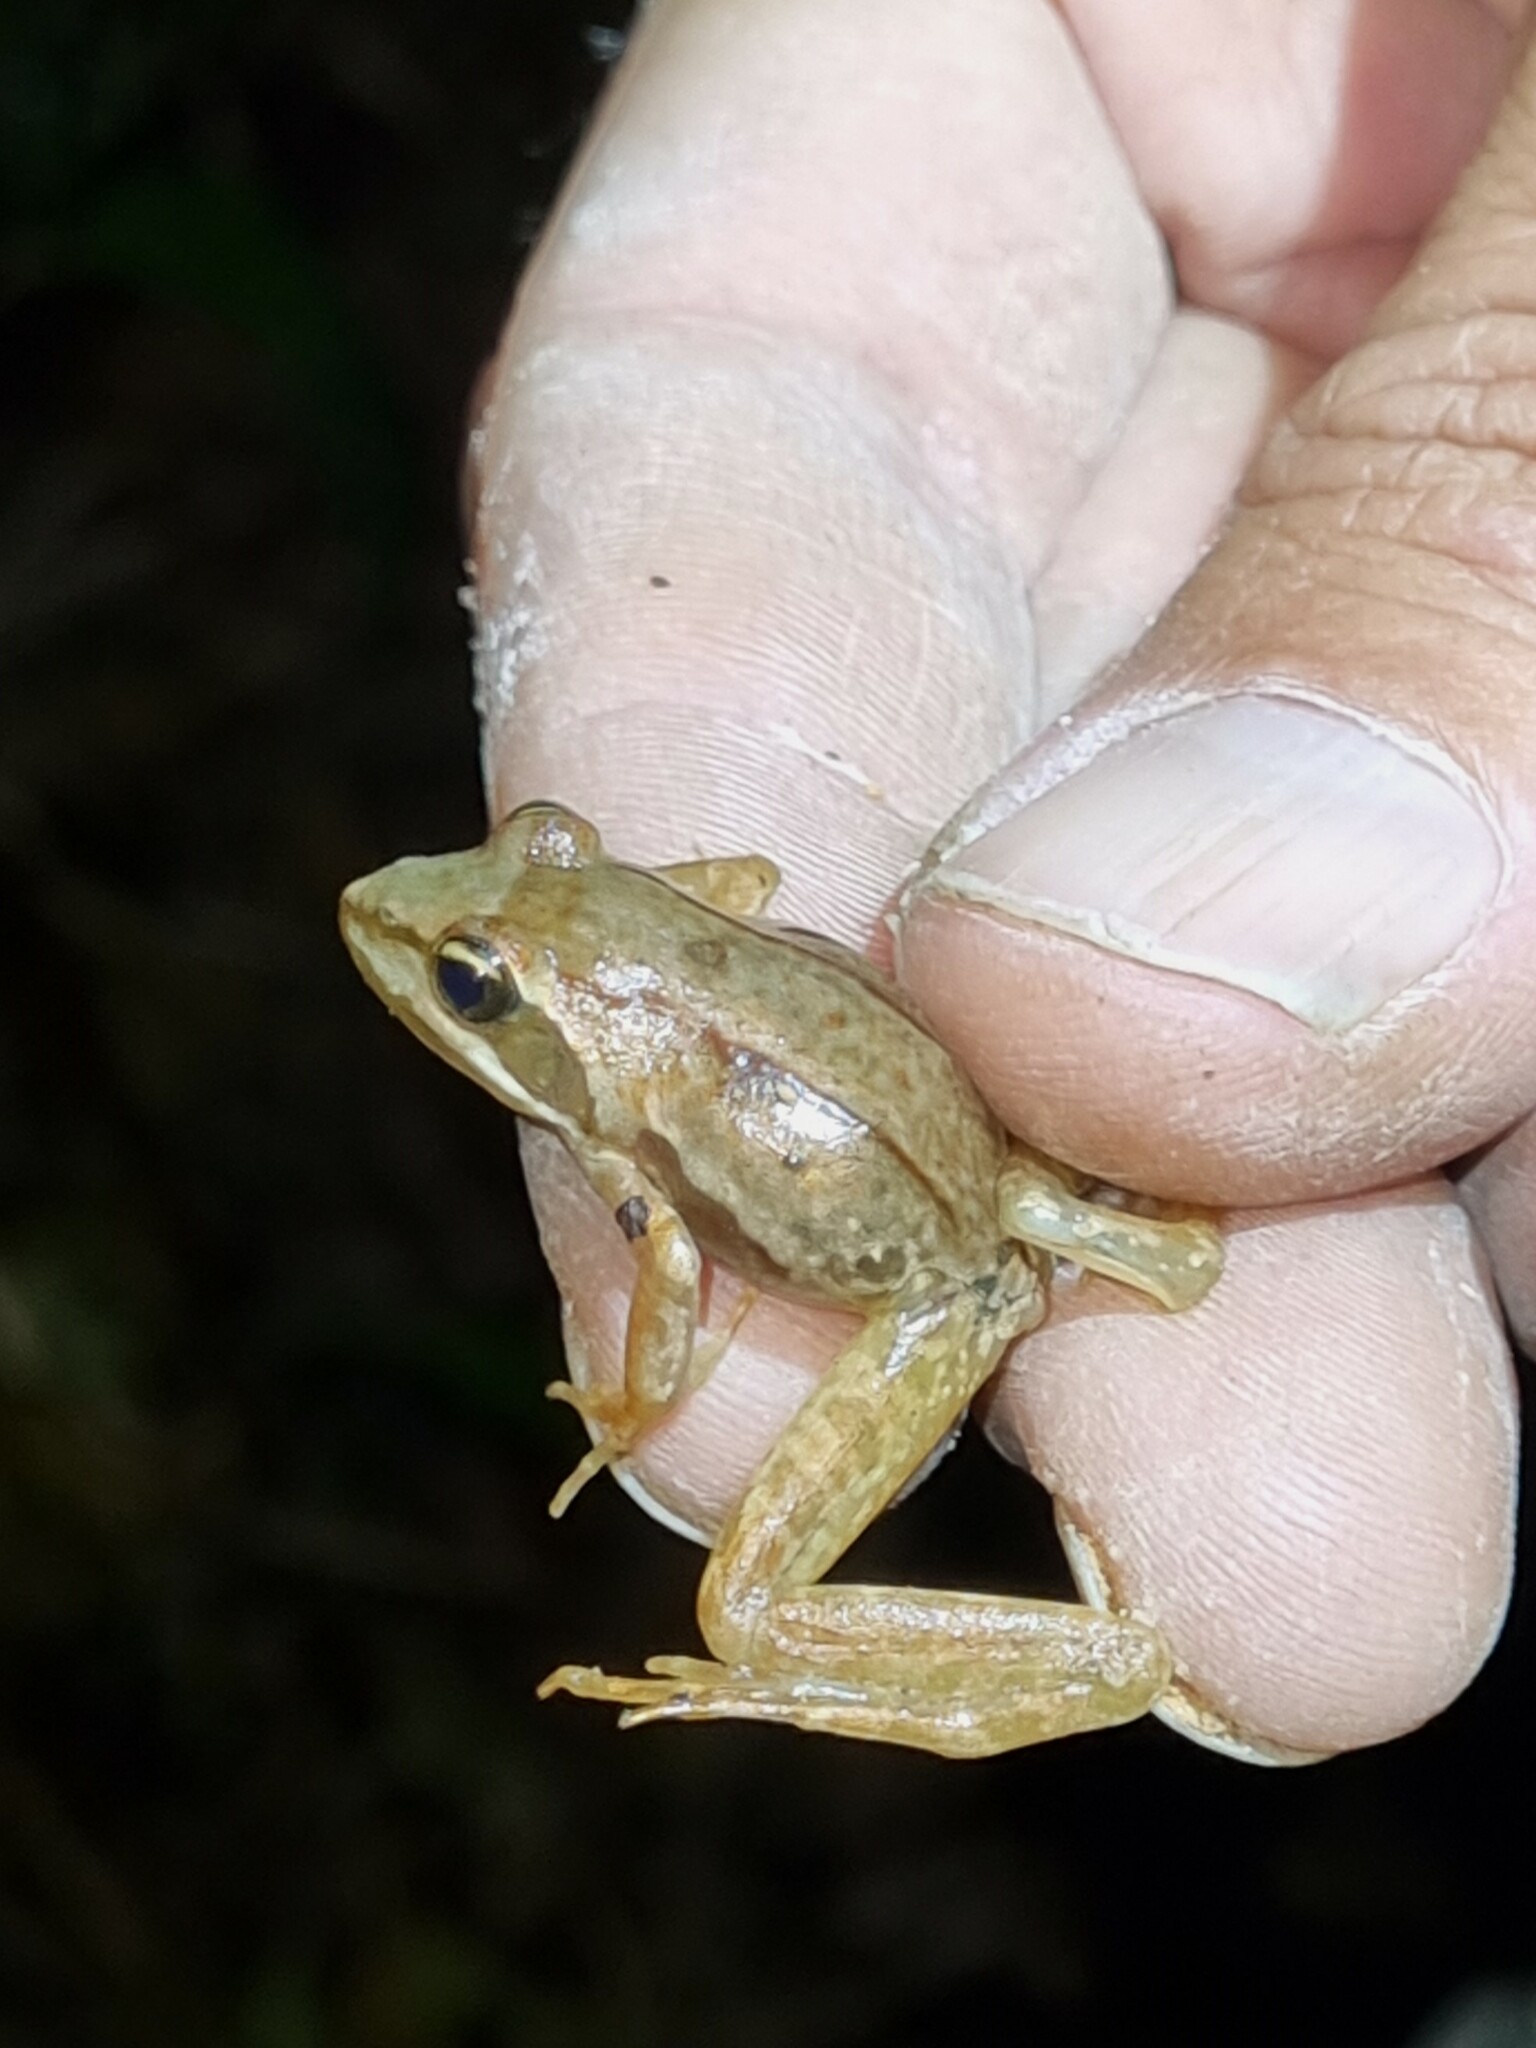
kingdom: Animalia
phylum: Chordata
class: Amphibia
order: Anura
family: Pyxicephalidae
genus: Amietia
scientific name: Amietia tenuoplicata
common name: River frog
